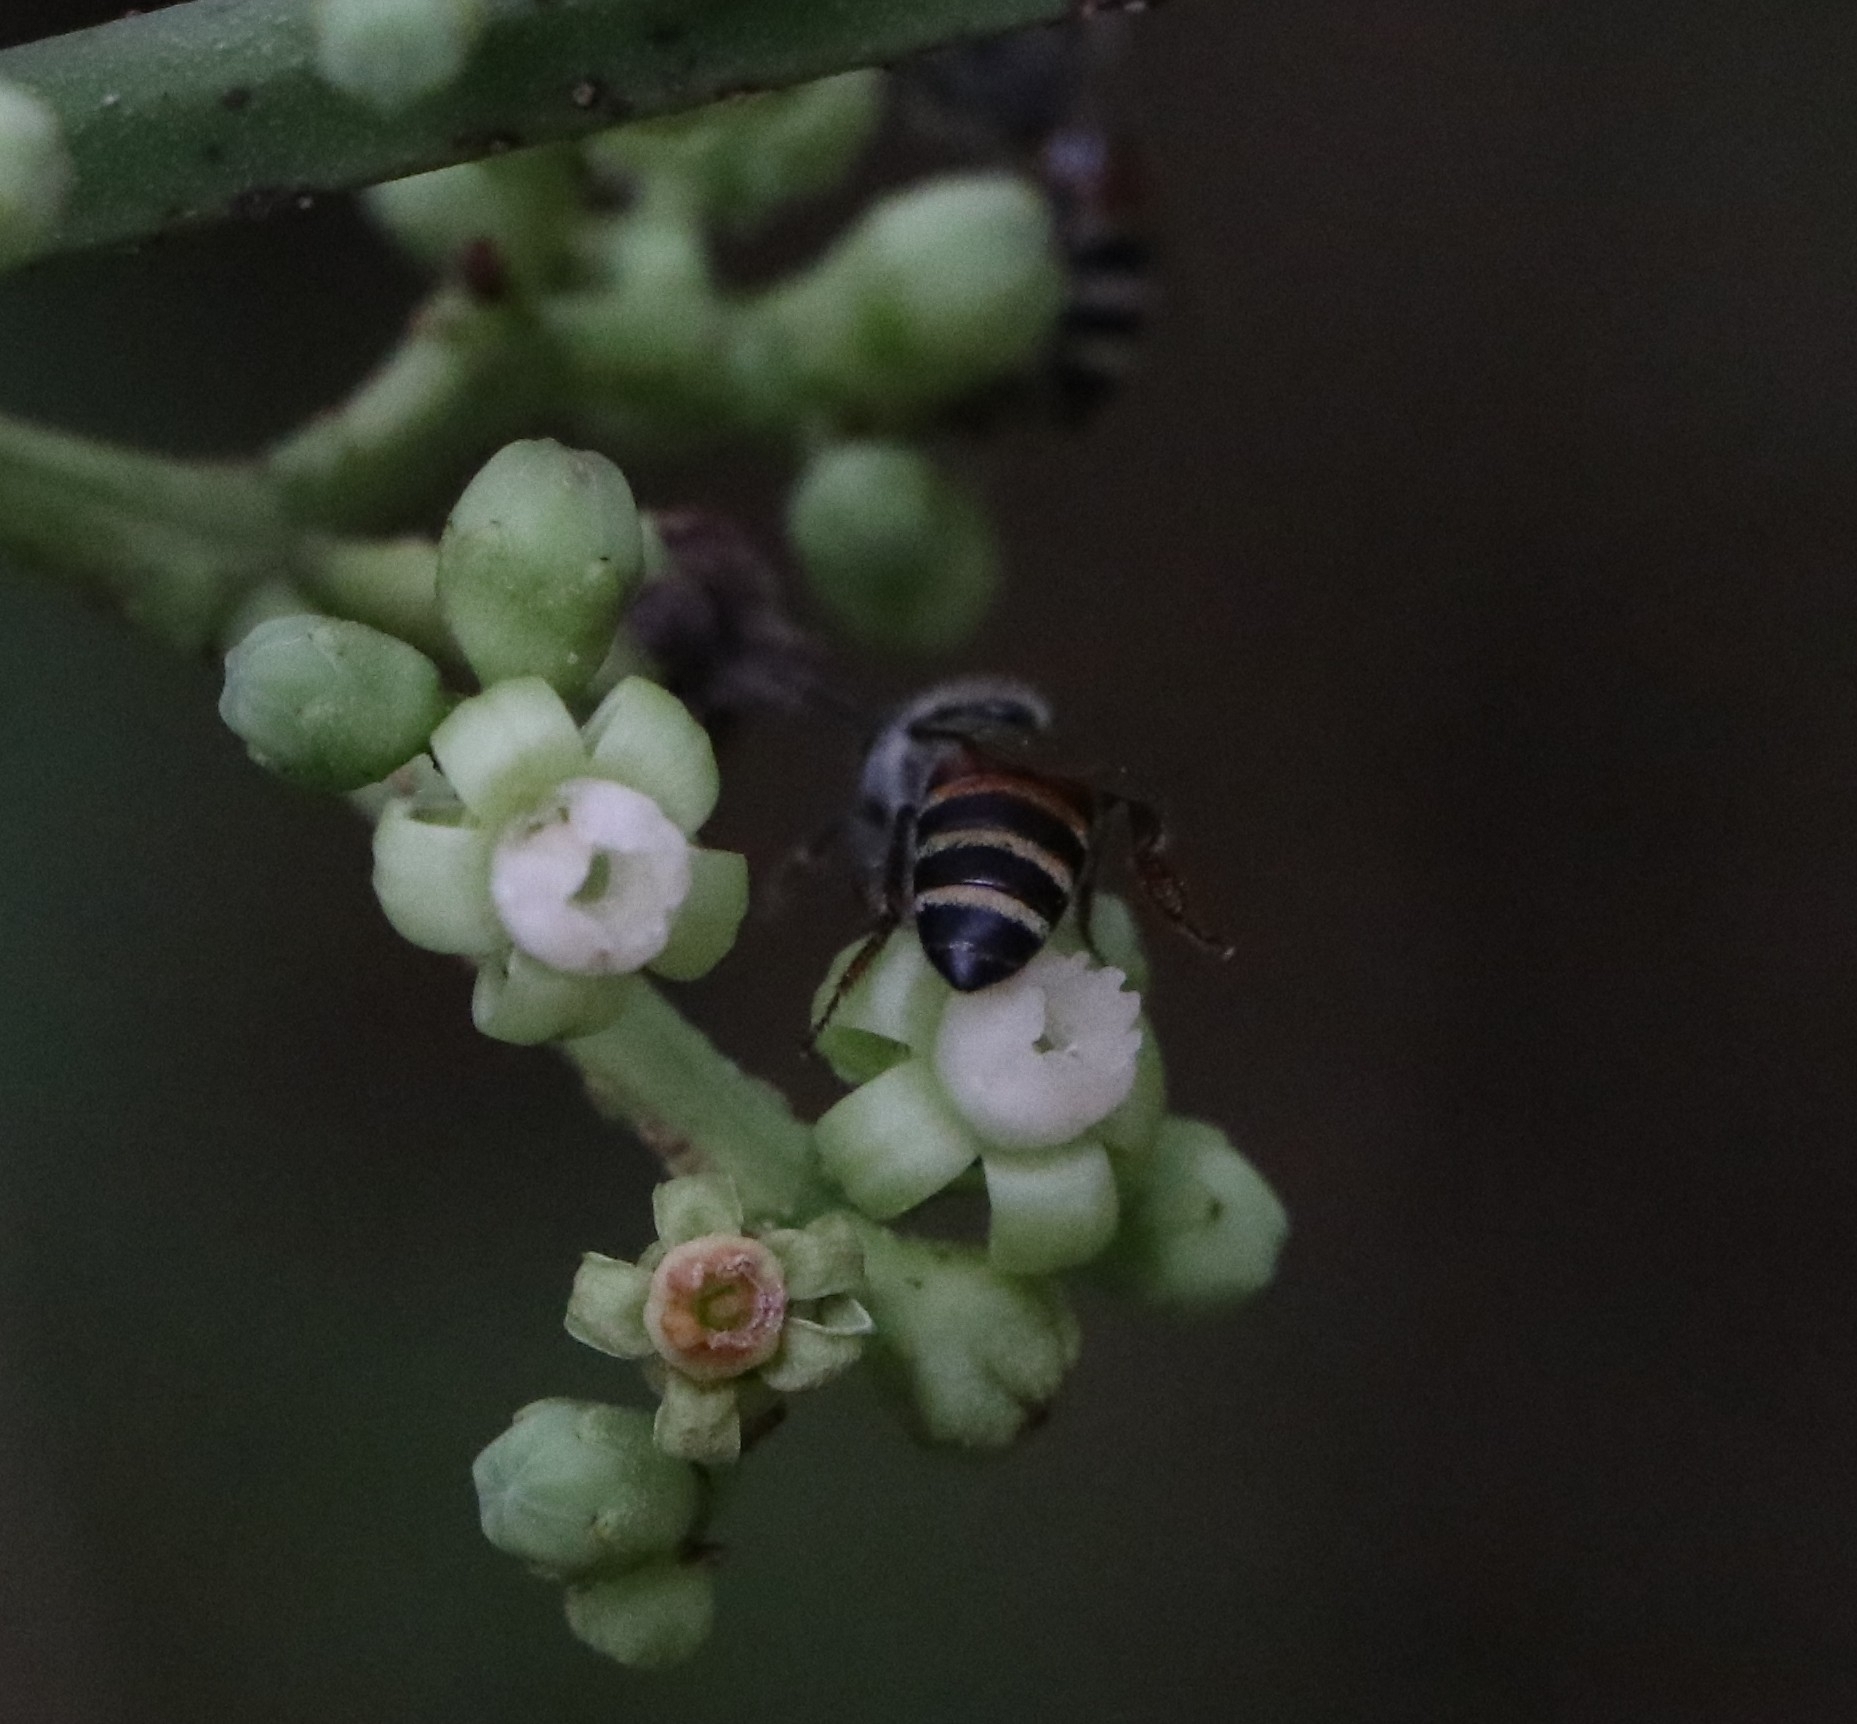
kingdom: Animalia
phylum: Arthropoda
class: Insecta
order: Hymenoptera
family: Apidae
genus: Apis
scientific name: Apis florea
